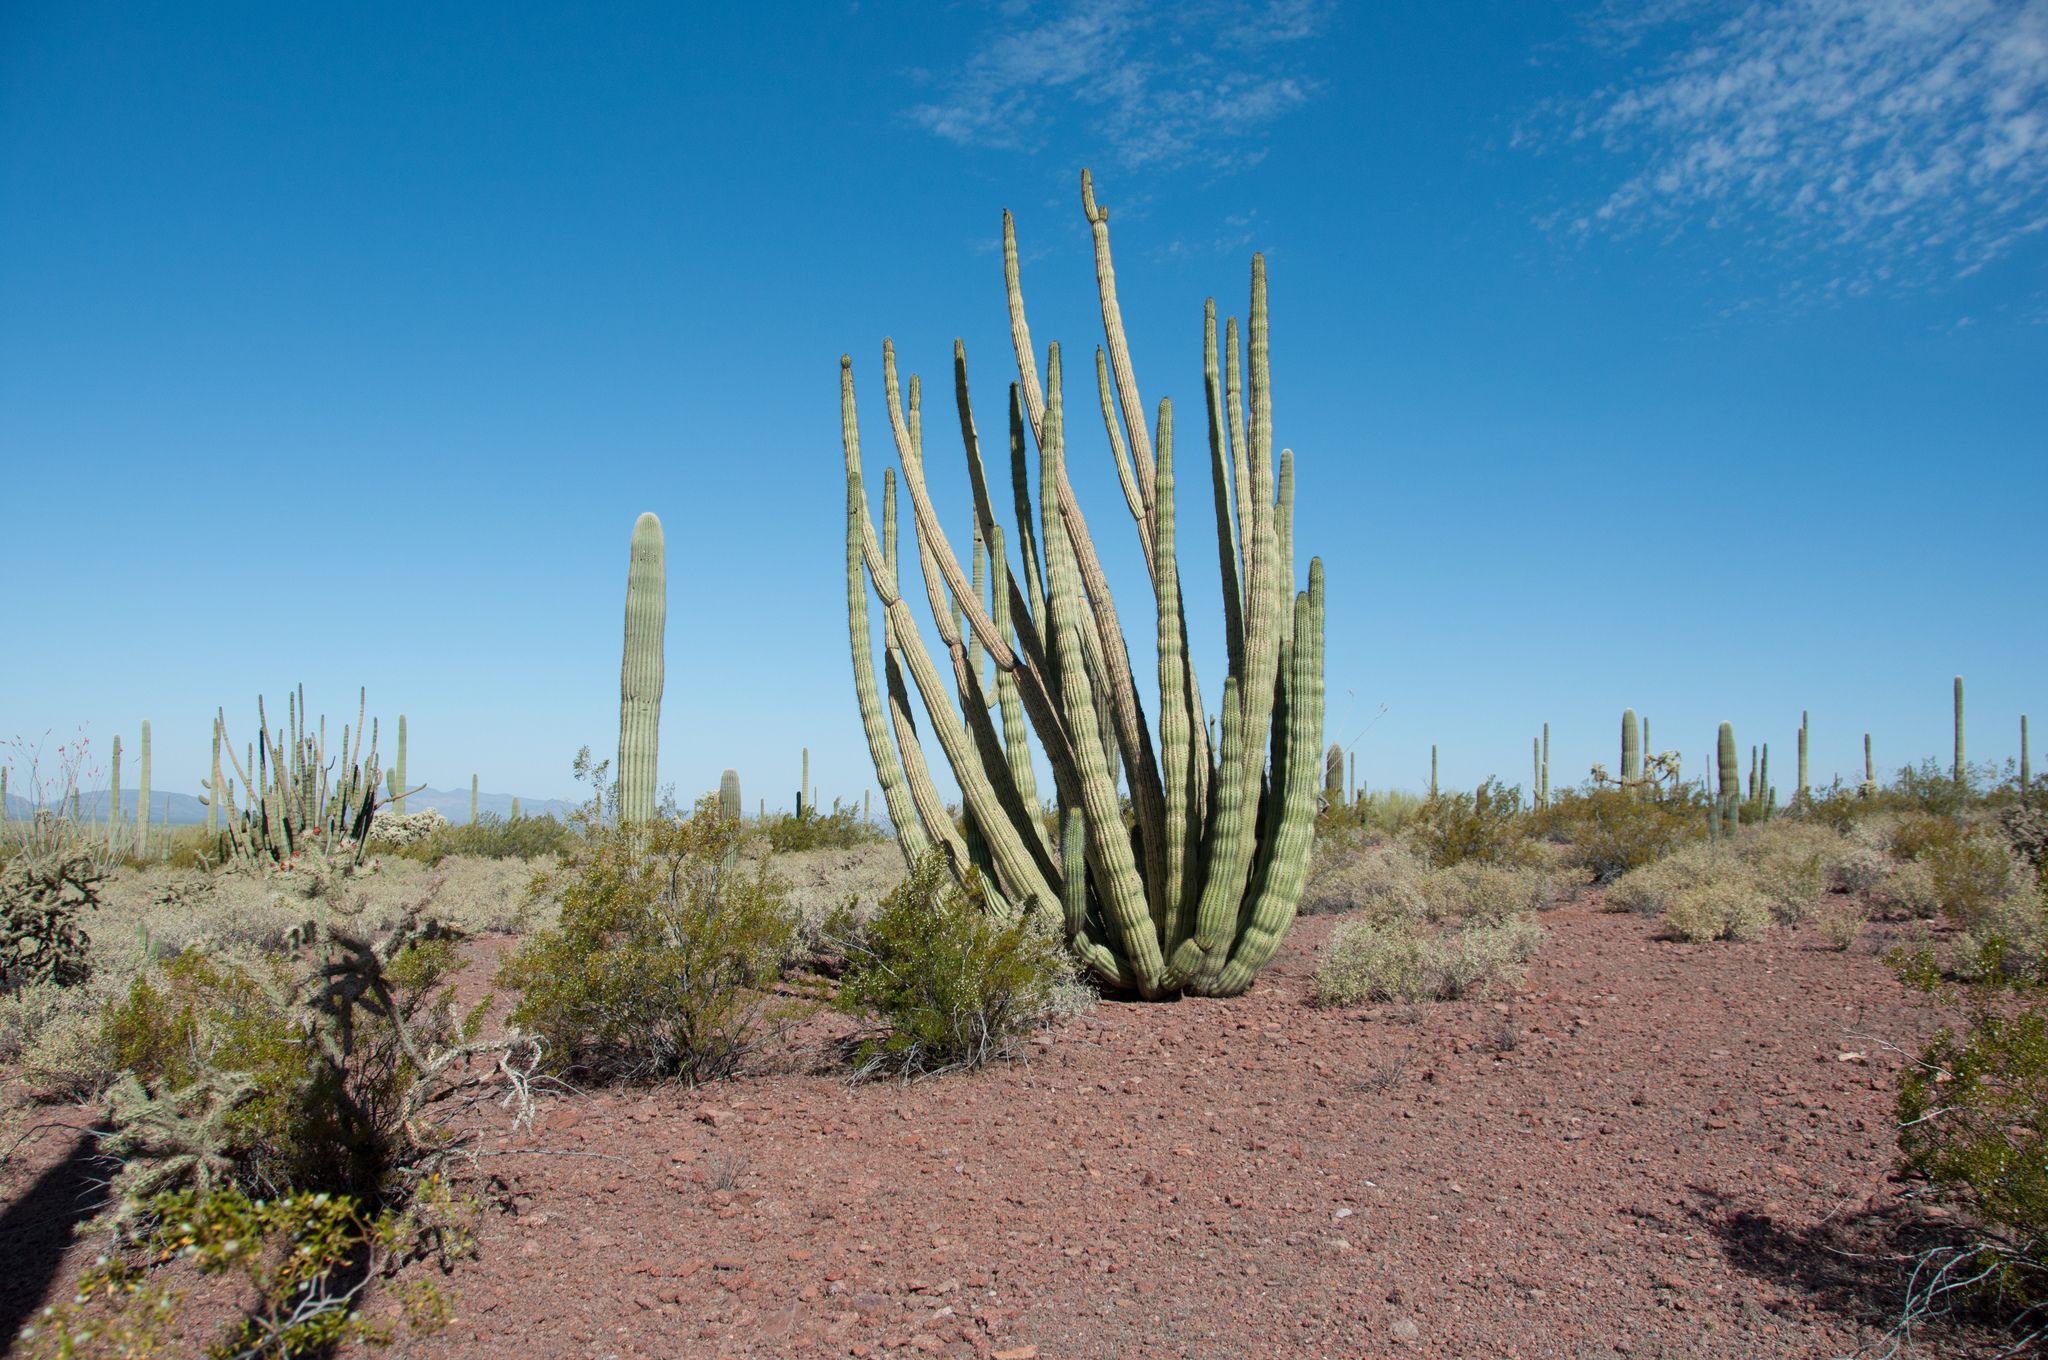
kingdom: Plantae
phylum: Tracheophyta
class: Magnoliopsida
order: Caryophyllales
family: Cactaceae
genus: Stenocereus
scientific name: Stenocereus thurberi
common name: Organ pipe cactus
